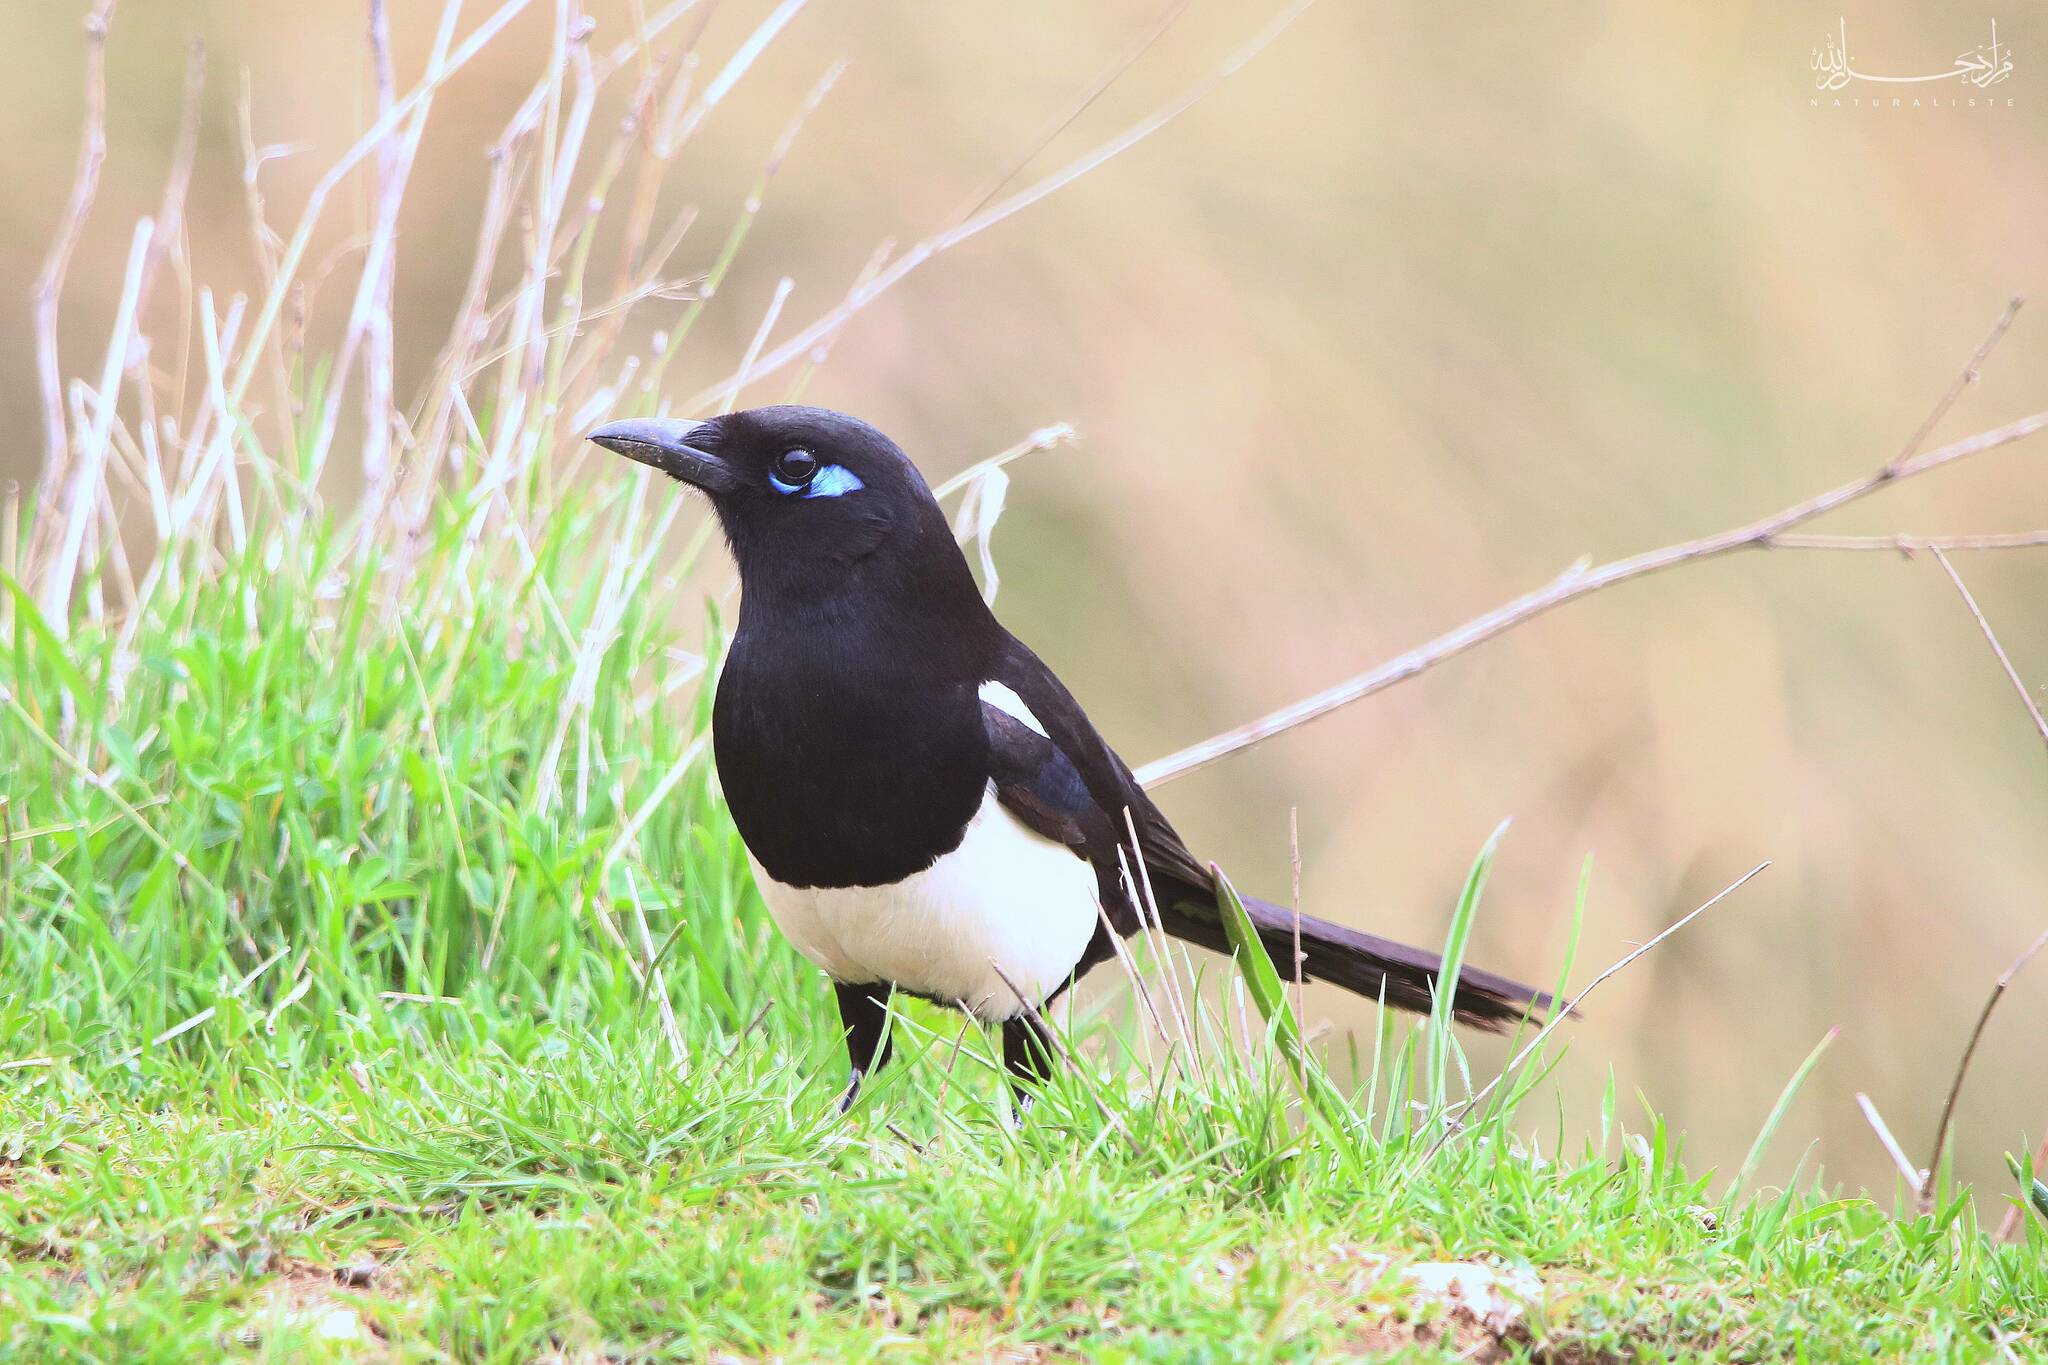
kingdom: Animalia
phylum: Chordata
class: Aves
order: Passeriformes
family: Corvidae
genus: Pica
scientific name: Pica mauritanica
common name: Maghreb magpie
